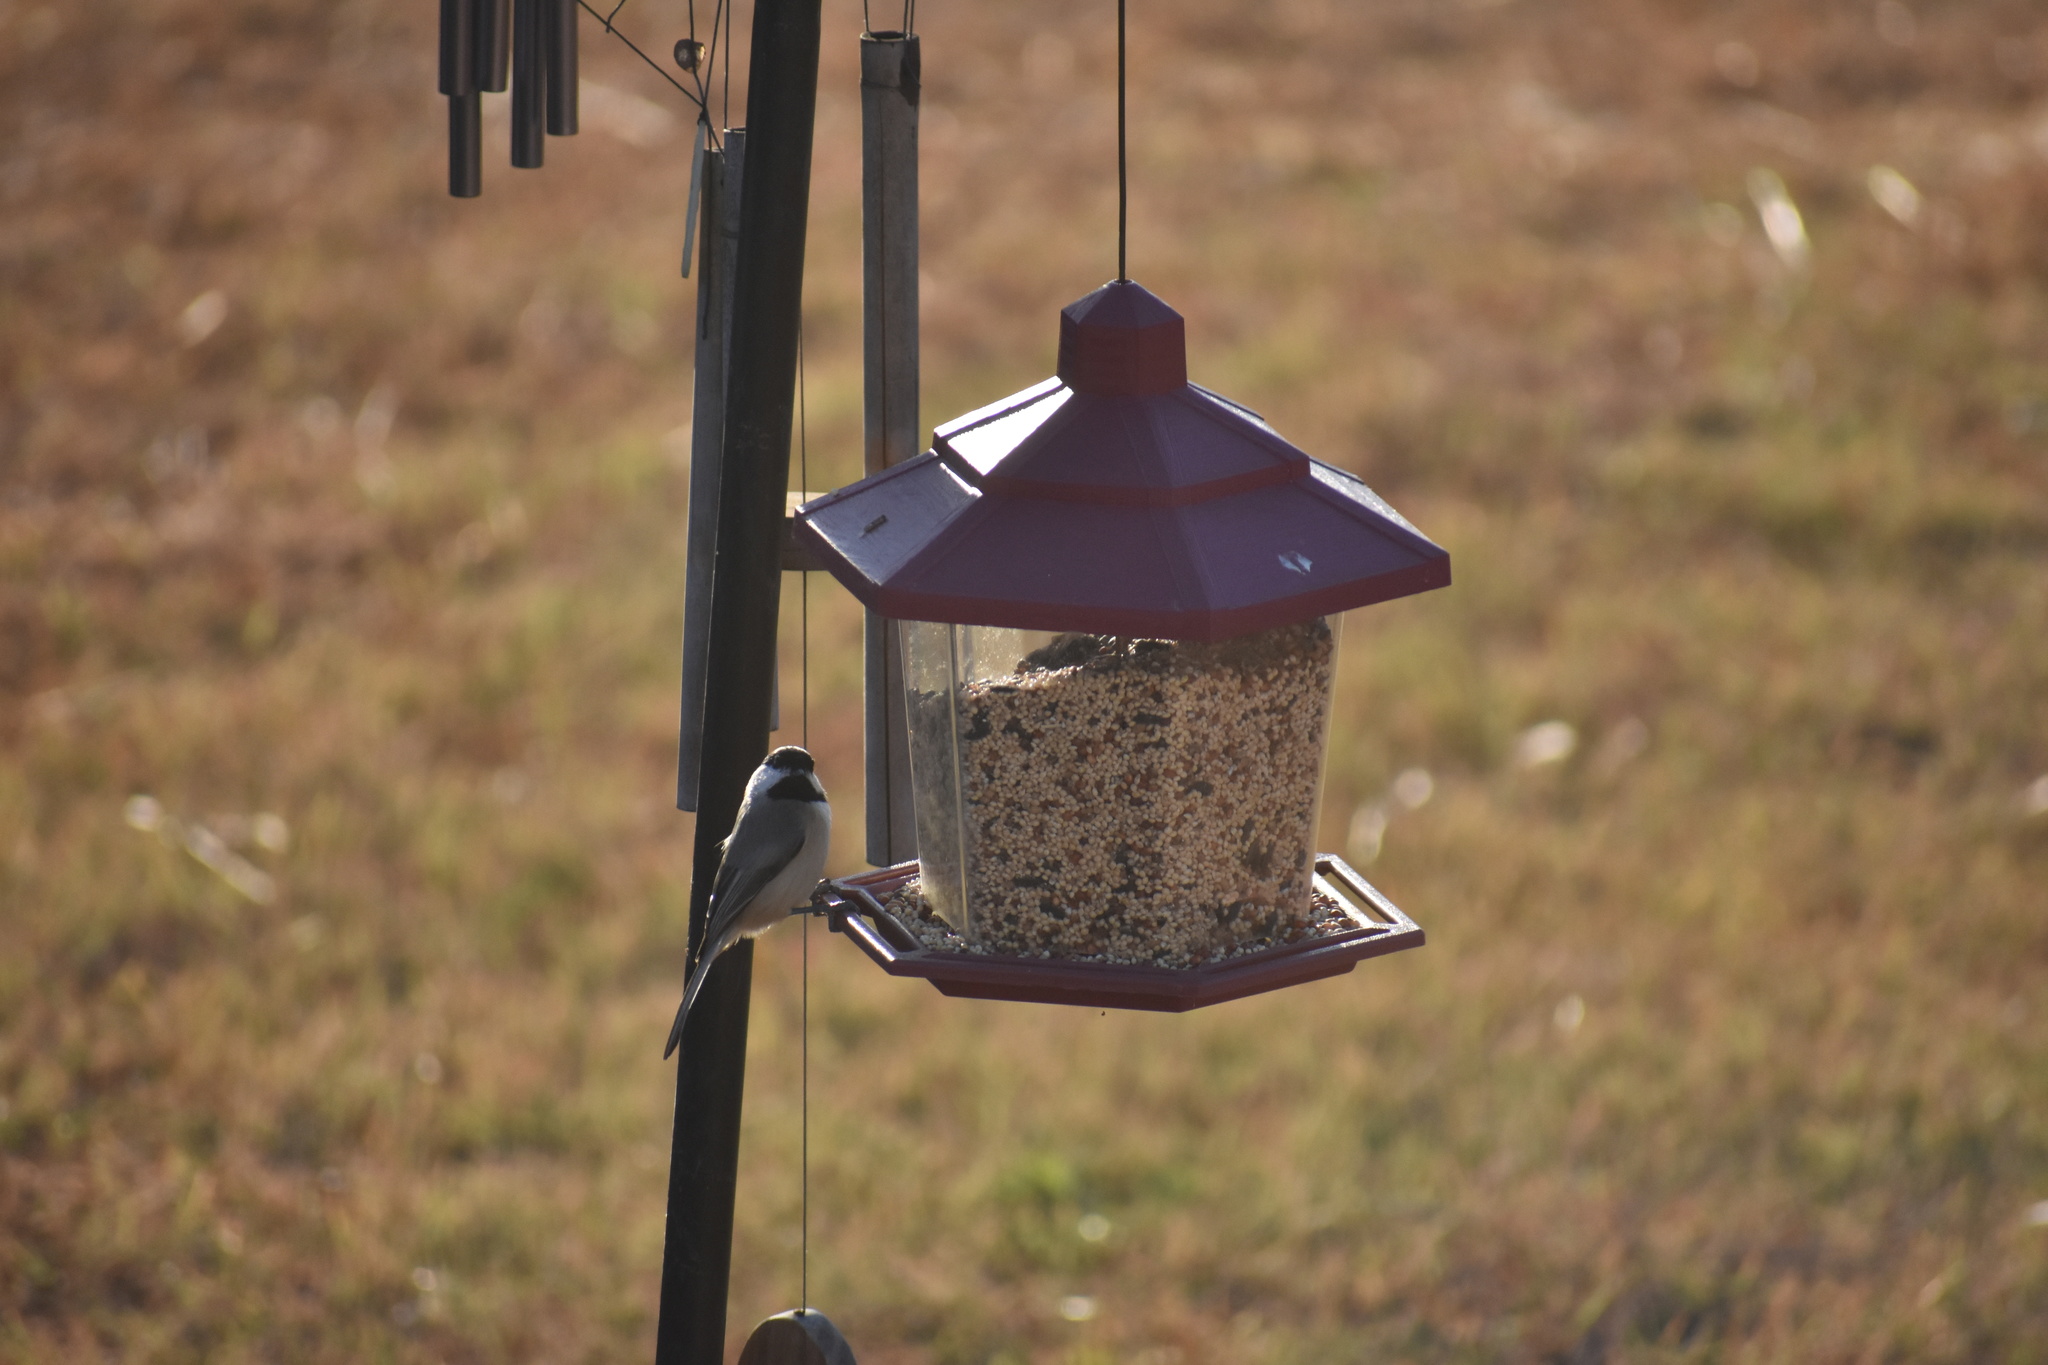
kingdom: Animalia
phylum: Chordata
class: Aves
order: Passeriformes
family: Paridae
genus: Poecile
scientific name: Poecile carolinensis
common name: Carolina chickadee
